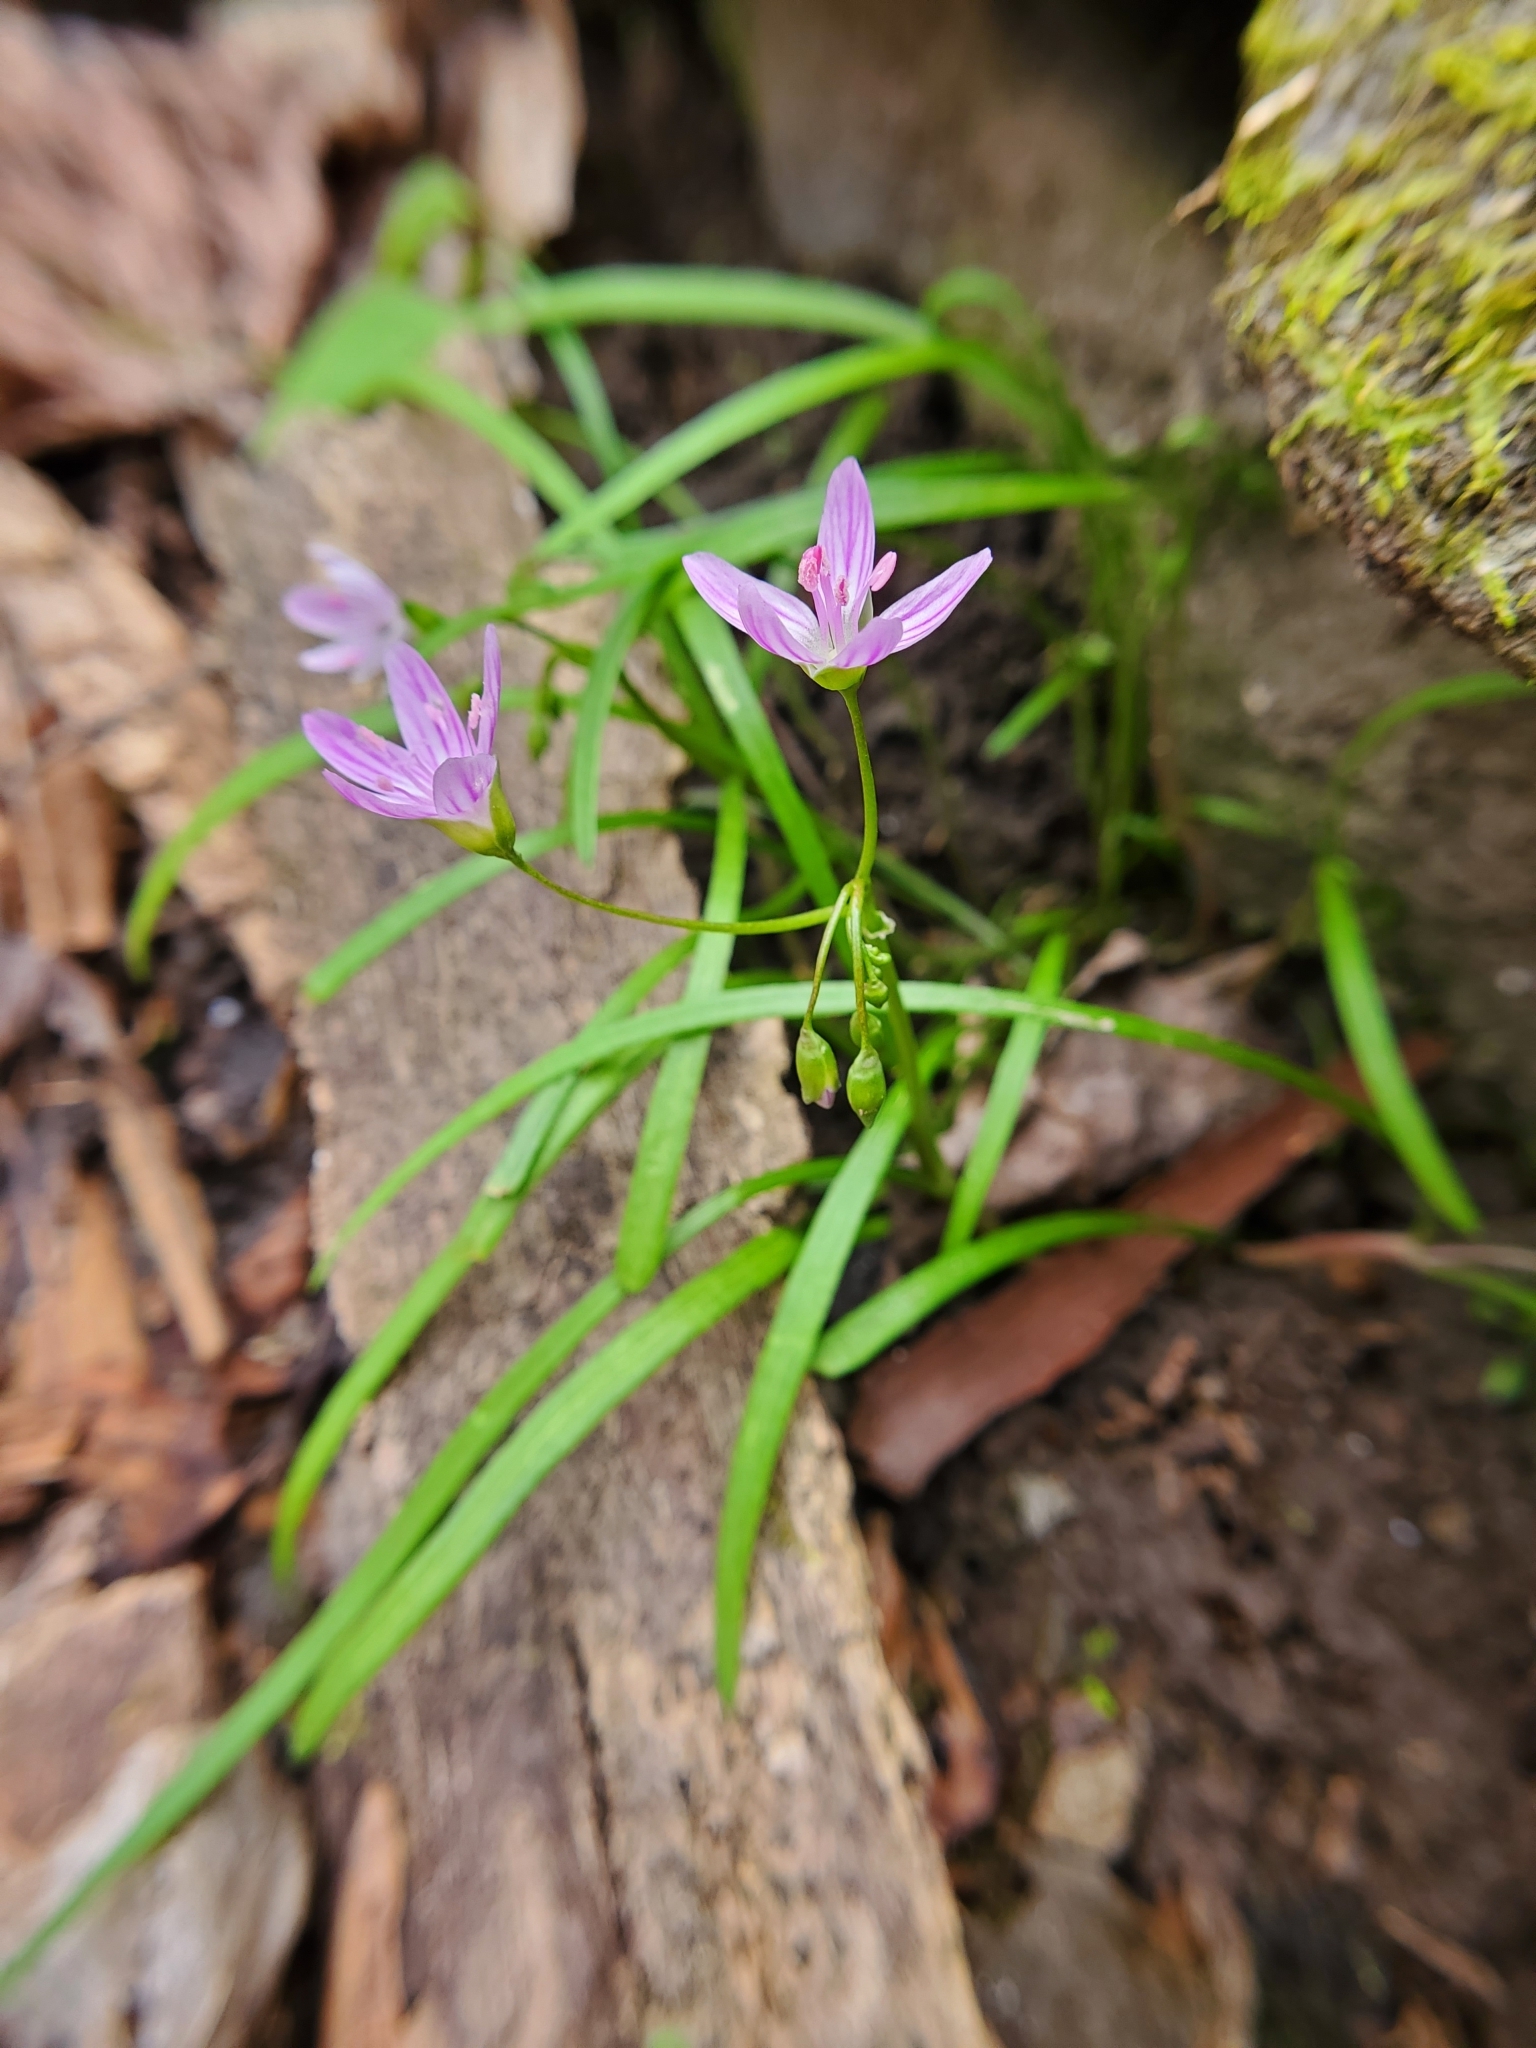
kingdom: Plantae
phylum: Tracheophyta
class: Magnoliopsida
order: Caryophyllales
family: Montiaceae
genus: Claytonia
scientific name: Claytonia virginica
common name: Virginia springbeauty
